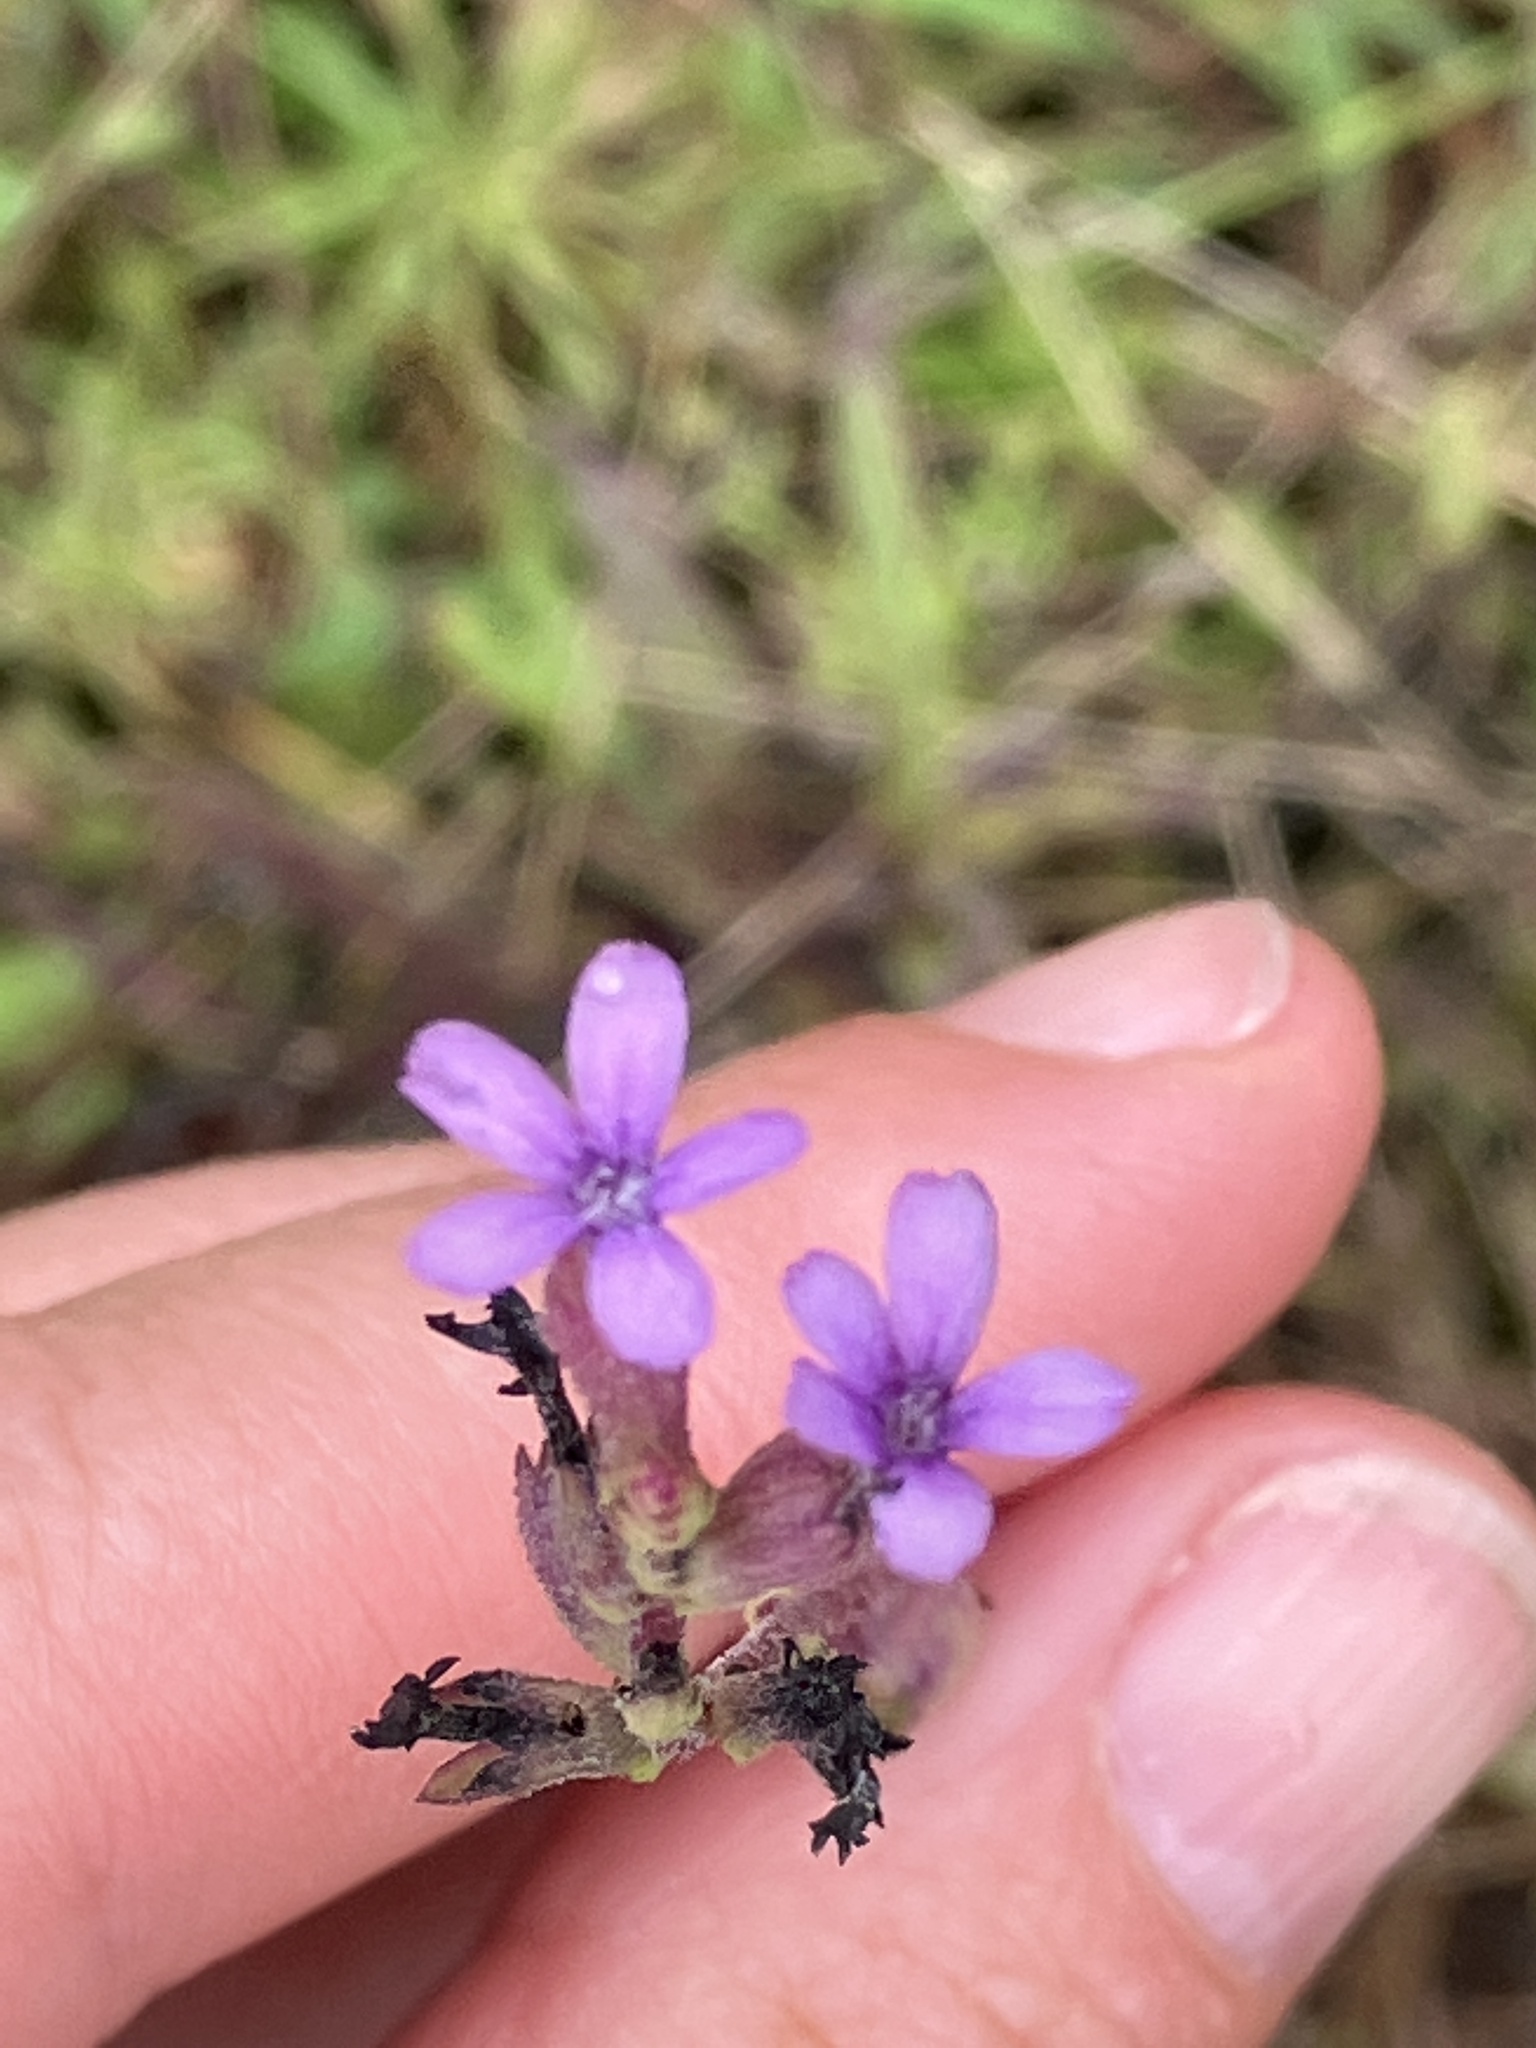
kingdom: Plantae
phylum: Tracheophyta
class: Magnoliopsida
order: Lamiales
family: Orobanchaceae
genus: Buchnera
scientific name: Buchnera hispida
